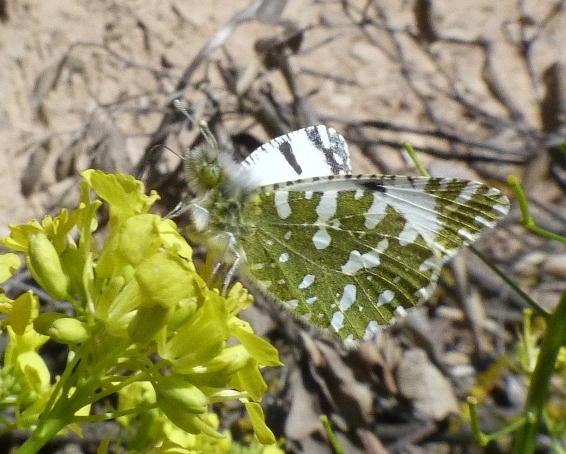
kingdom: Animalia
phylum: Arthropoda
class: Insecta
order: Lepidoptera
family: Pieridae
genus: Euchloe
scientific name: Euchloe crameri
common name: Western dappled white
